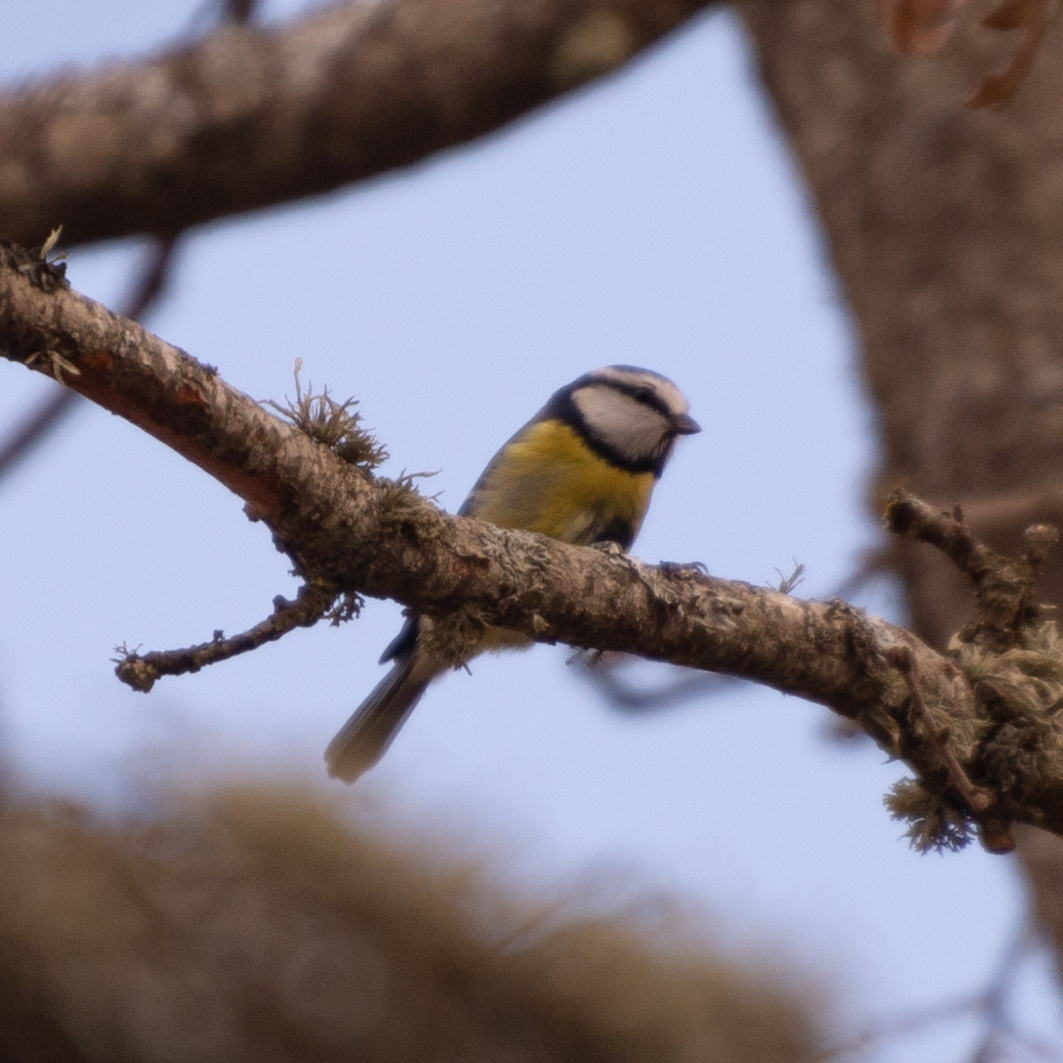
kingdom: Animalia
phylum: Chordata
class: Aves
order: Passeriformes
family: Paridae
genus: Cyanistes
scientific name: Cyanistes caeruleus
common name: Eurasian blue tit
